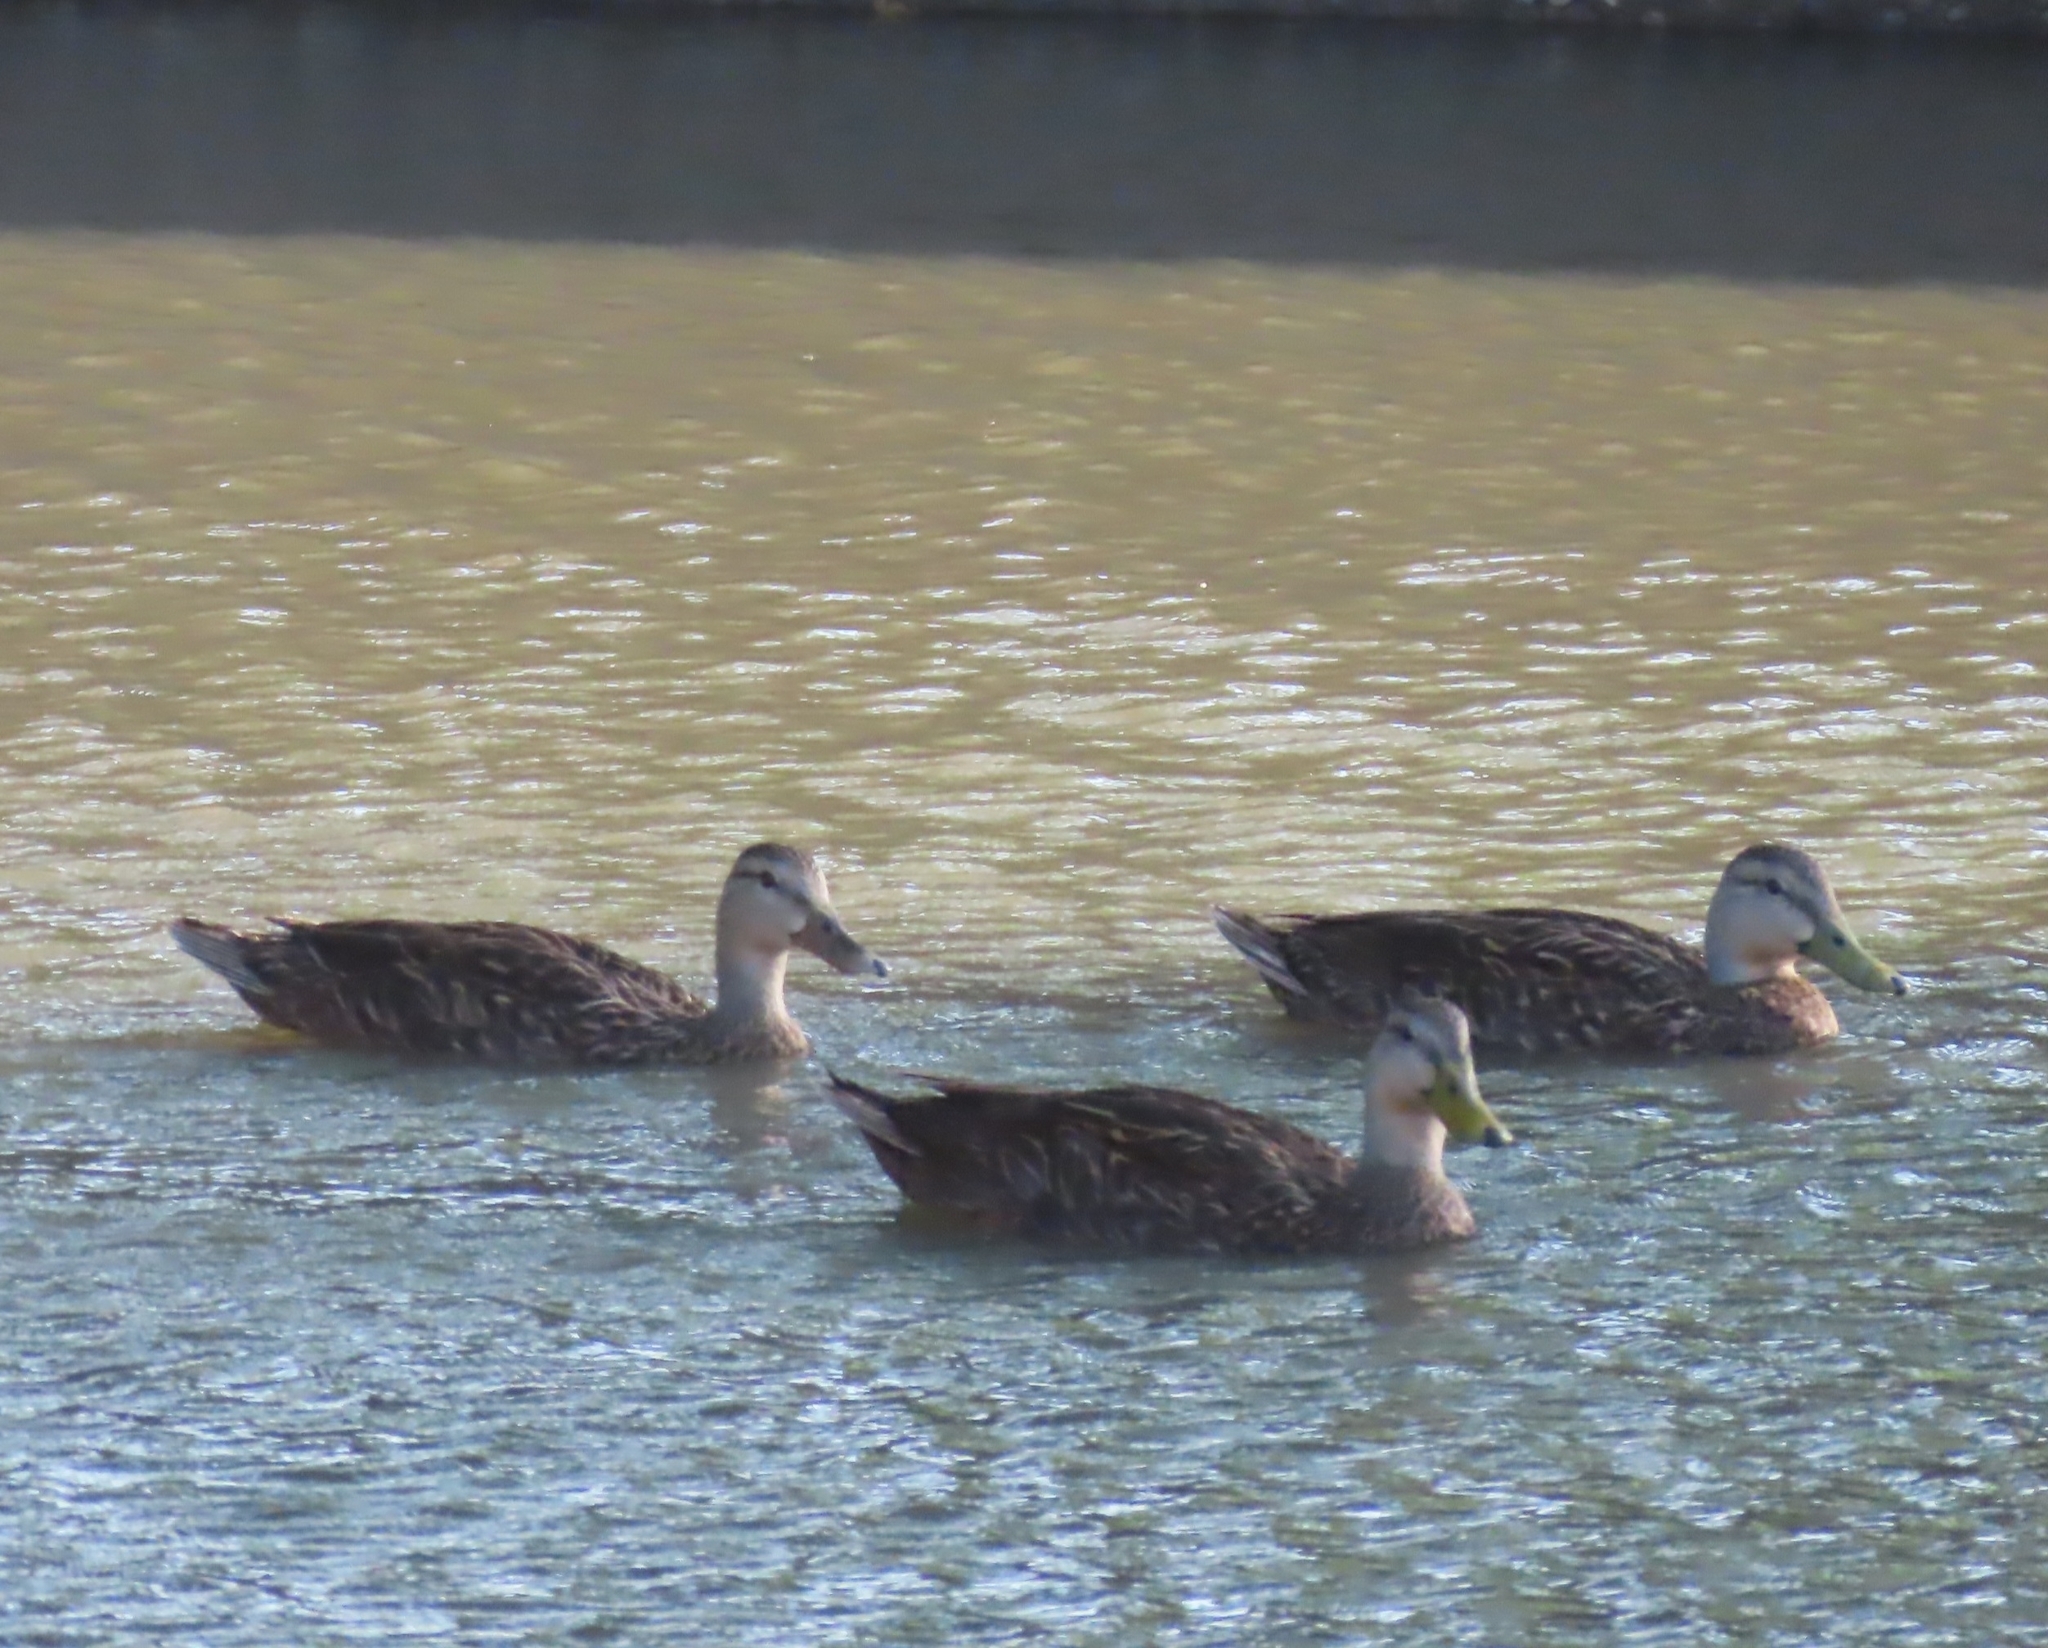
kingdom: Animalia
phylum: Chordata
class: Aves
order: Anseriformes
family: Anatidae
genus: Anas
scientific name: Anas fulvigula
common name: Mottled duck
